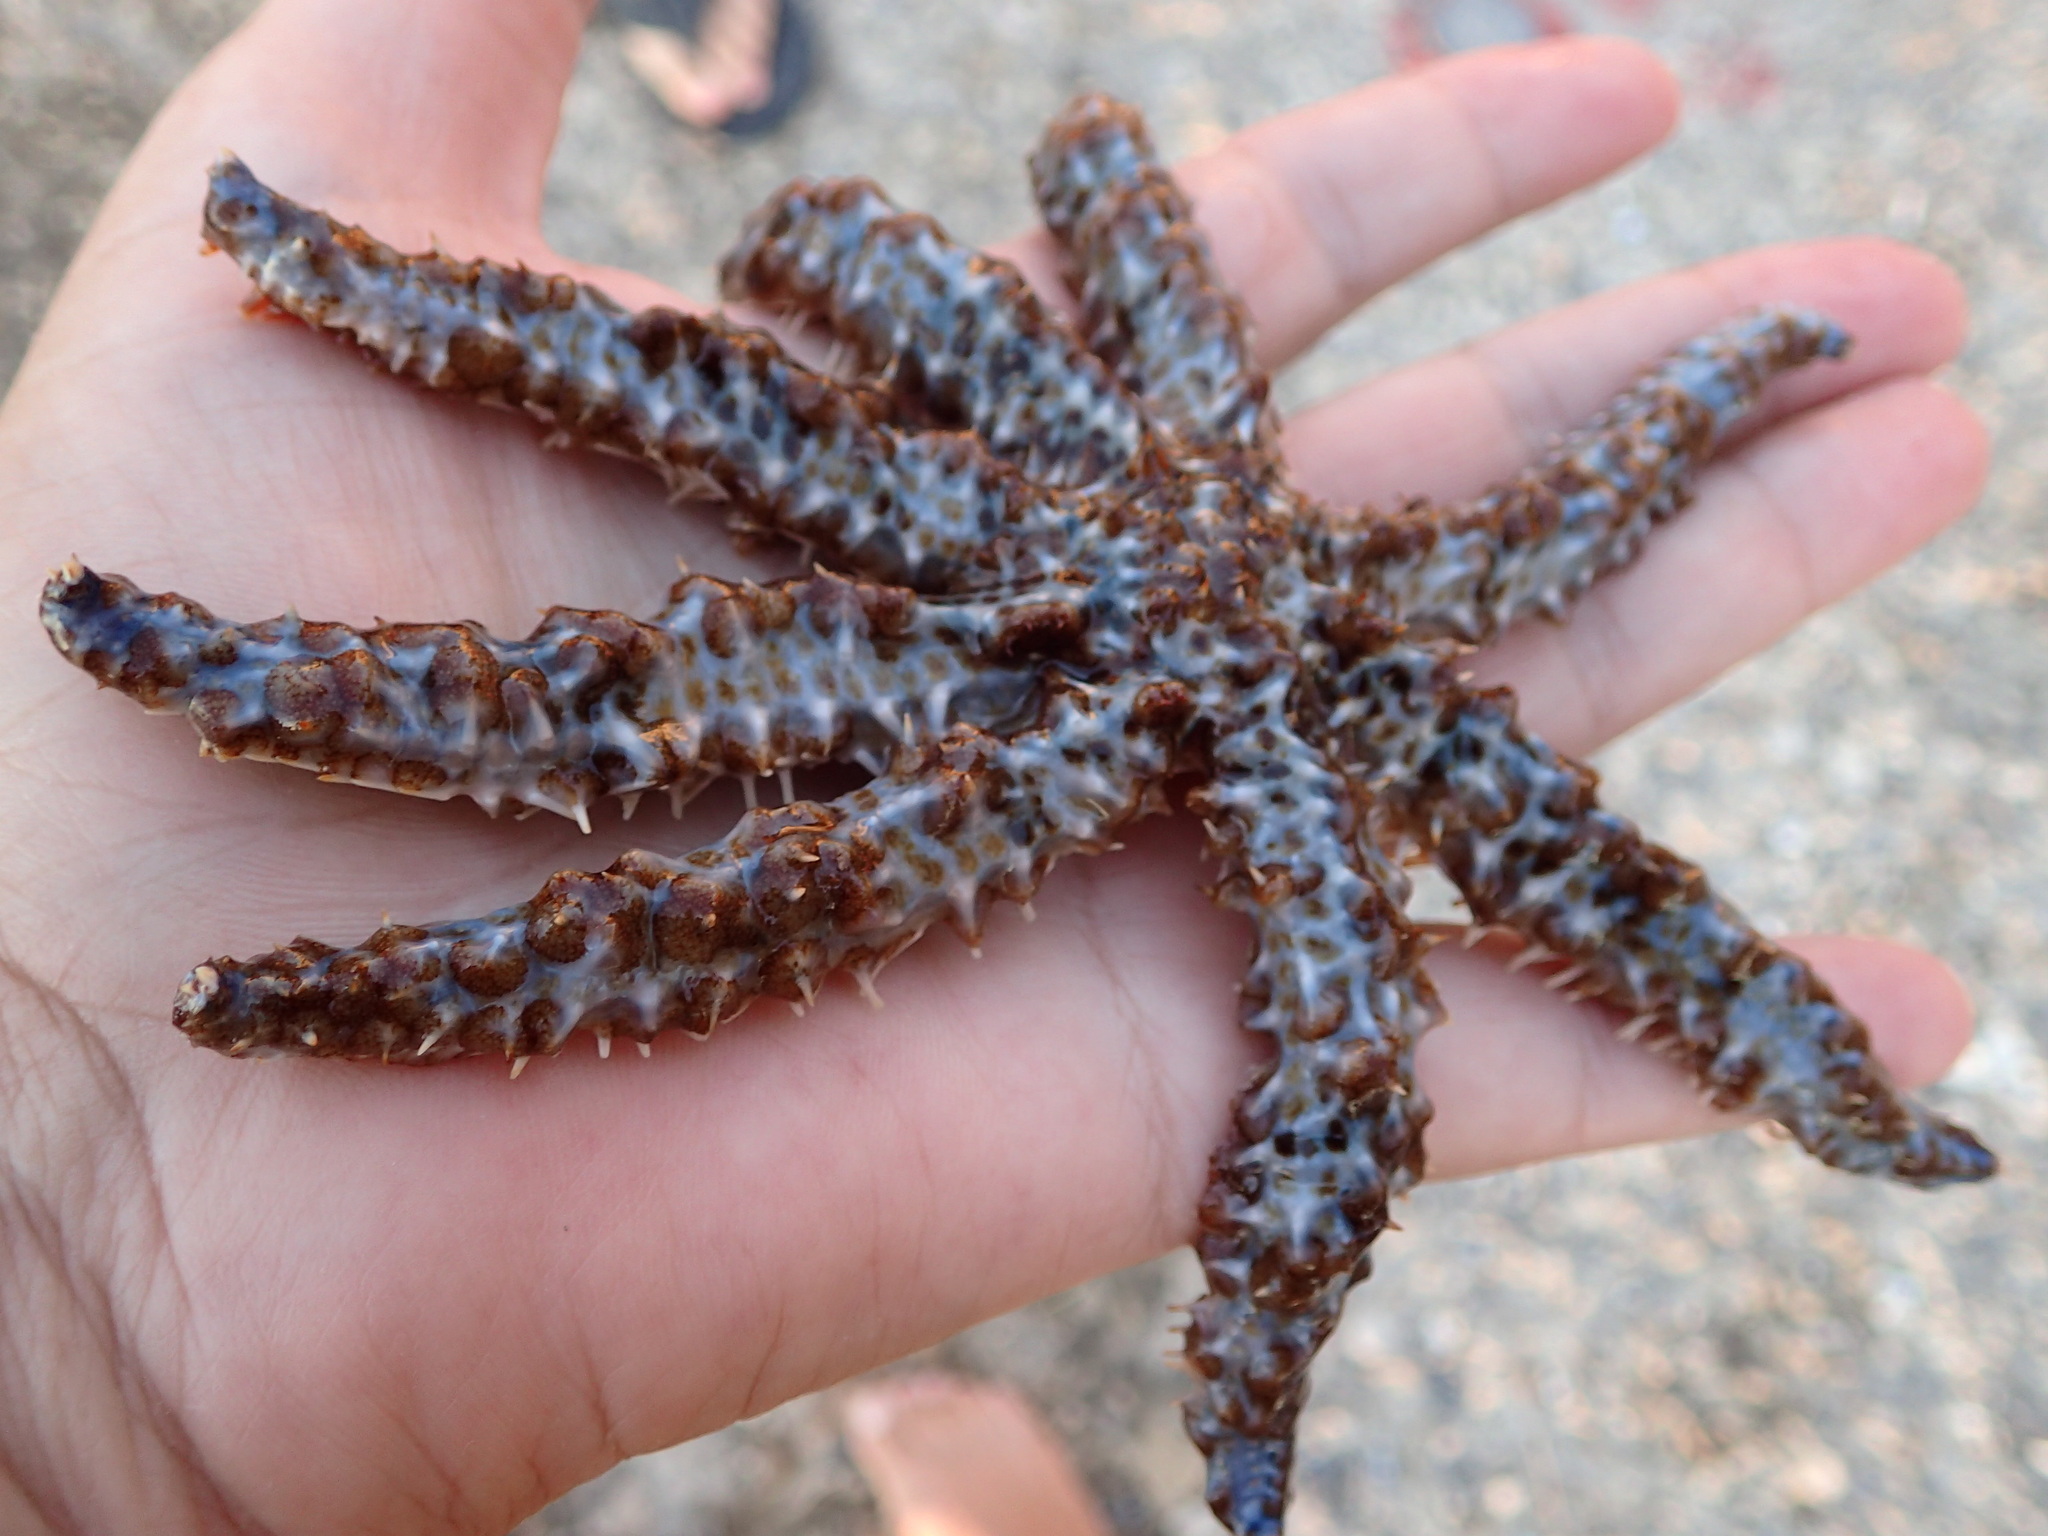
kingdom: Animalia
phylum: Echinodermata
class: Asteroidea
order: Forcipulatida
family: Asteriidae
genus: Coscinasterias
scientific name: Coscinasterias tenuispina
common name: Blue spiny starfish
